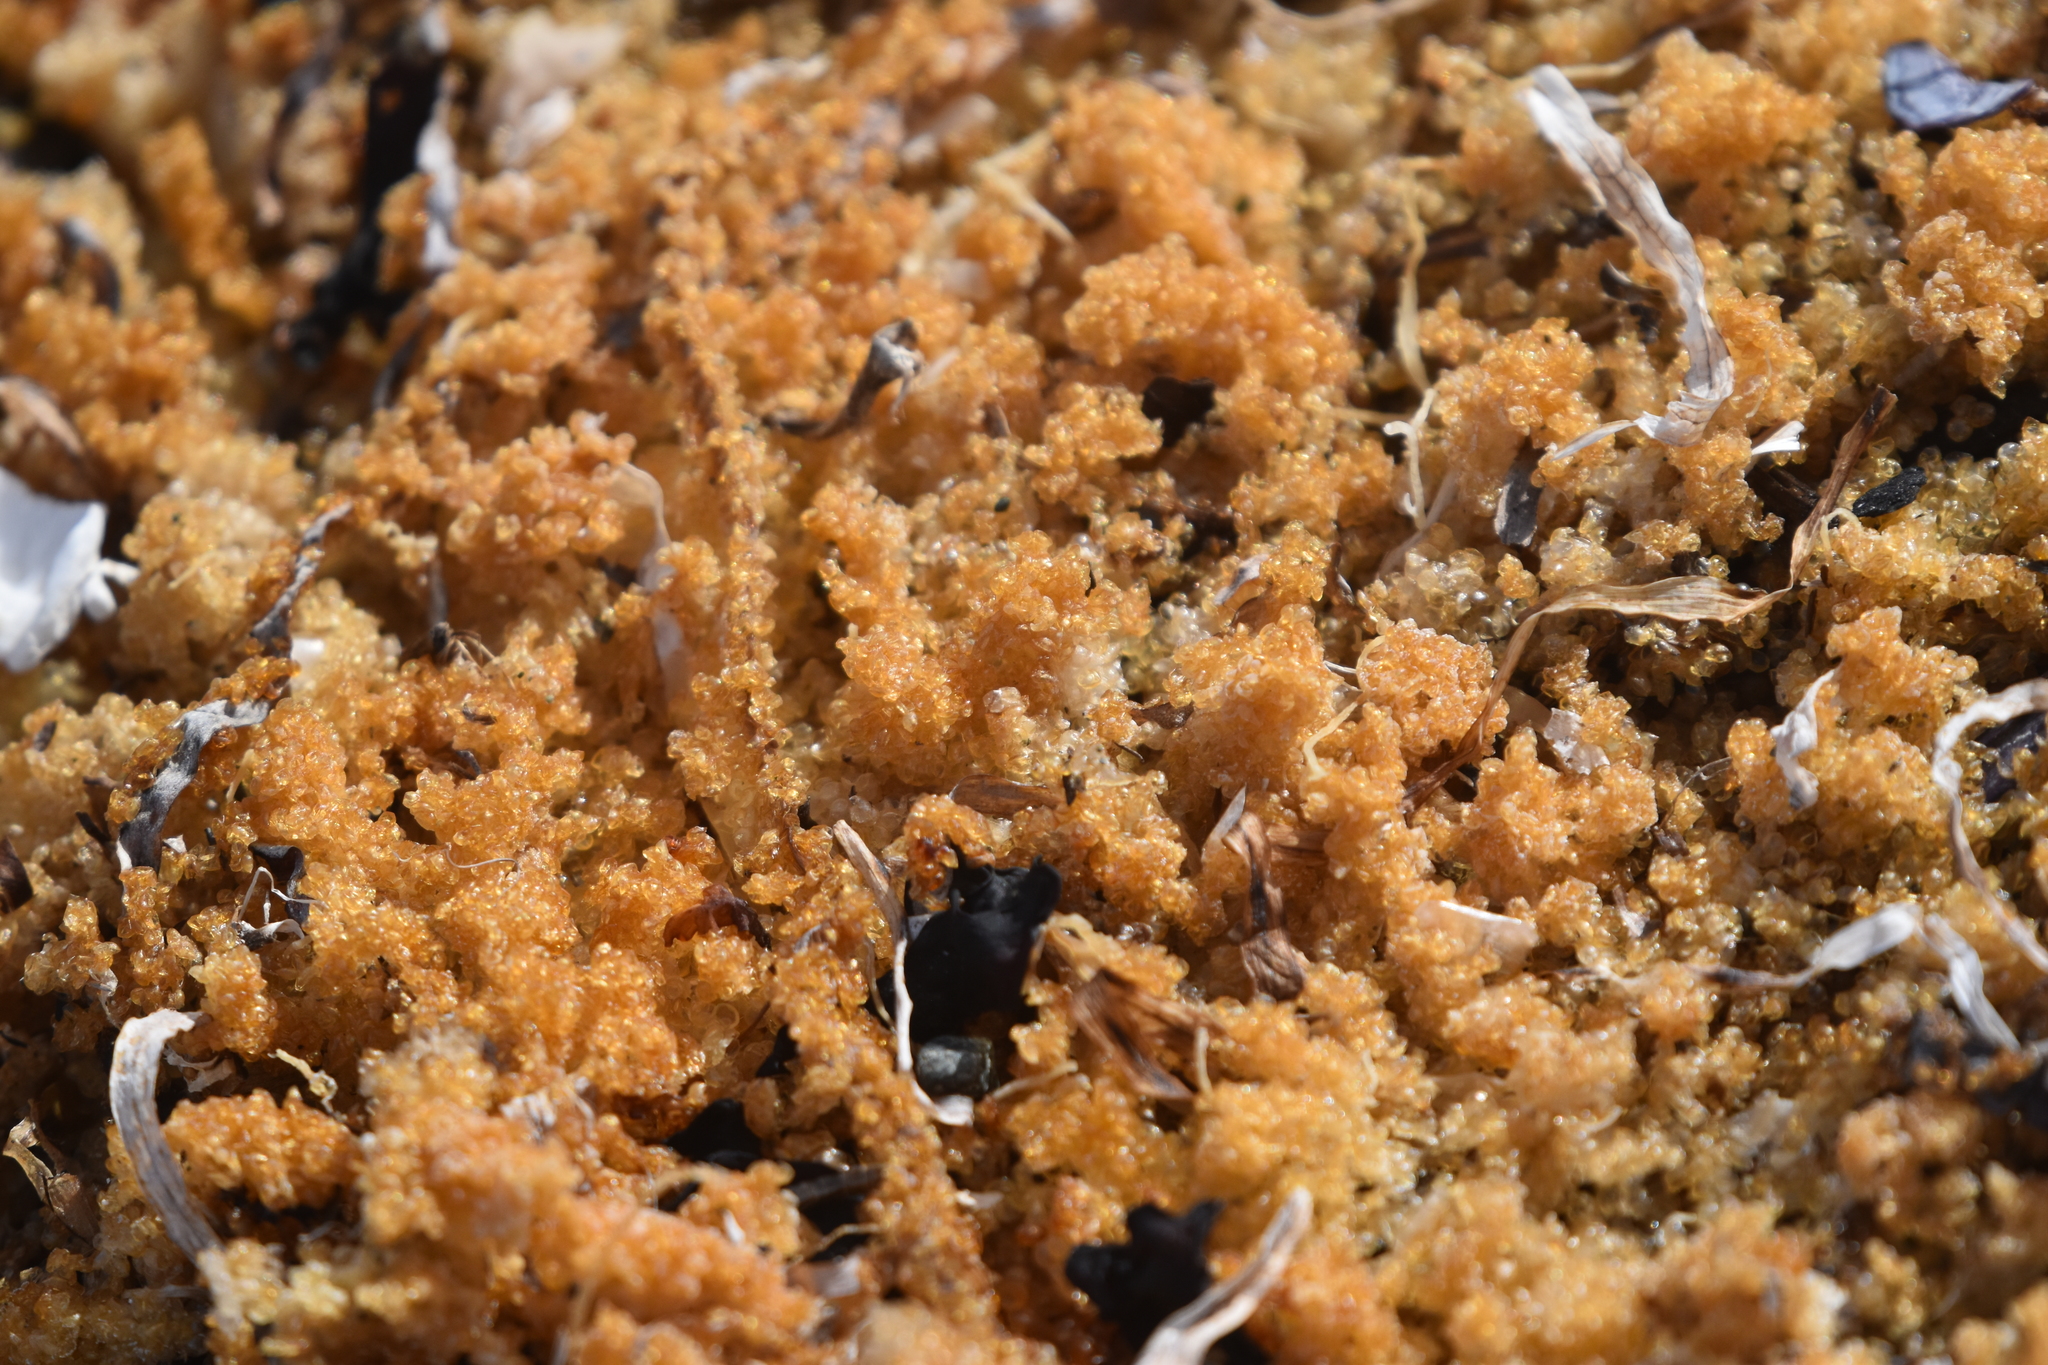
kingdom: Animalia
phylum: Chordata
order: Clupeiformes
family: Clupeidae
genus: Clupea
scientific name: Clupea pallasii
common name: Pacific herring
